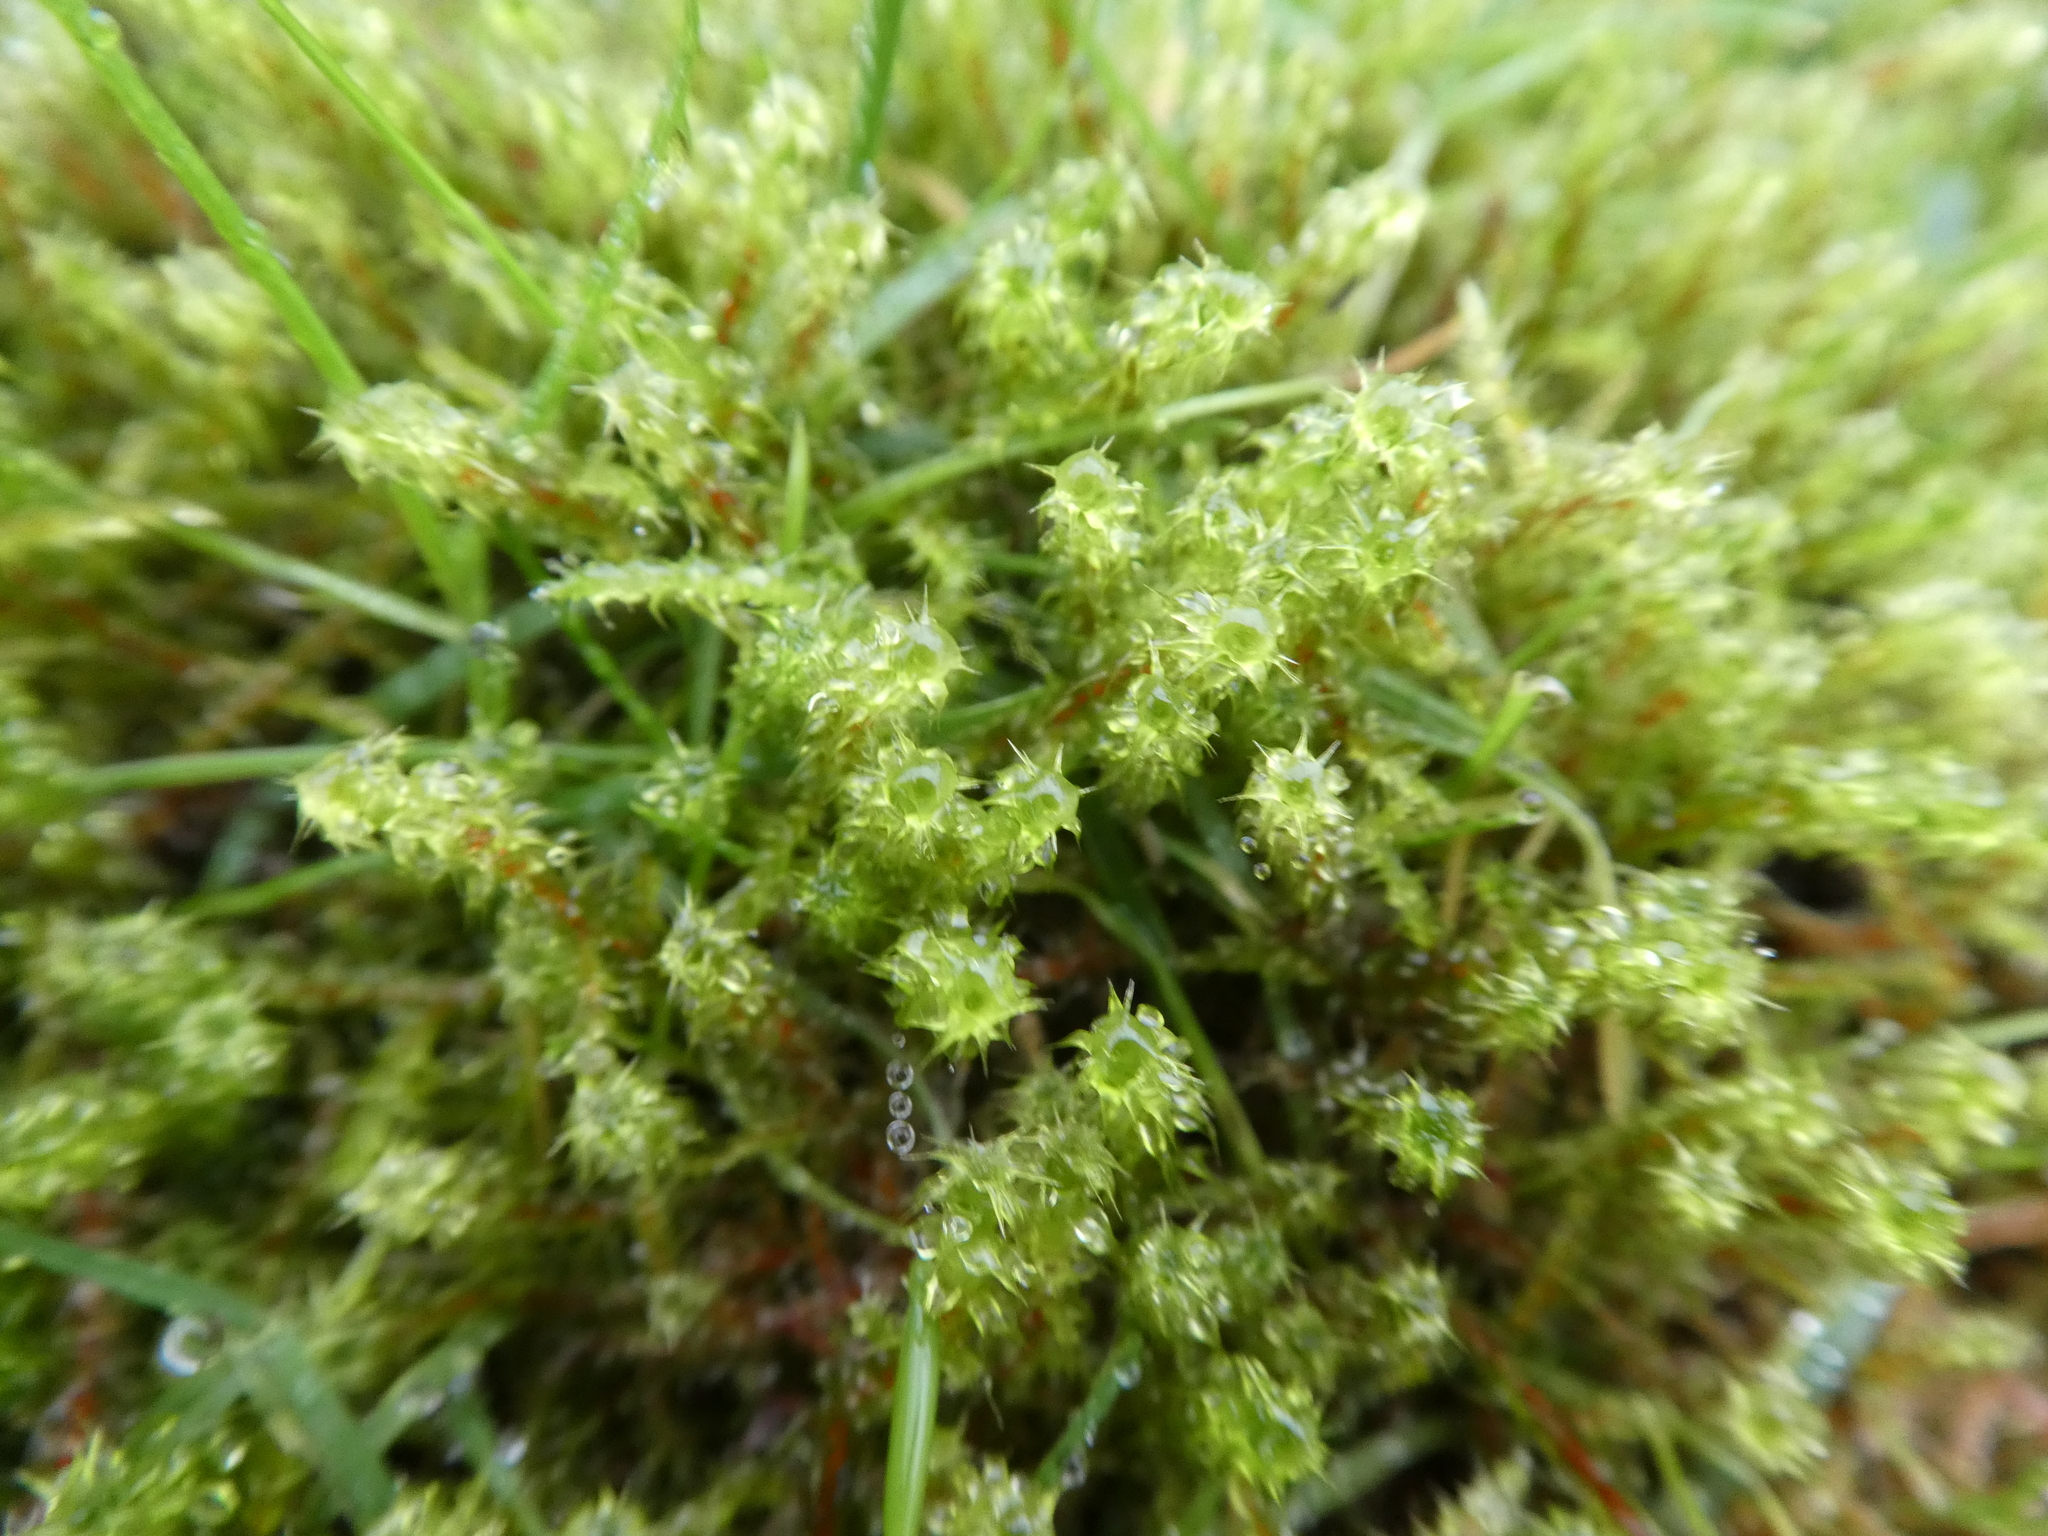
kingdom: Plantae
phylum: Bryophyta
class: Bryopsida
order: Hypnales
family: Hylocomiaceae
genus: Rhytidiadelphus
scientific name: Rhytidiadelphus squarrosus
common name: Springy turf-moss
